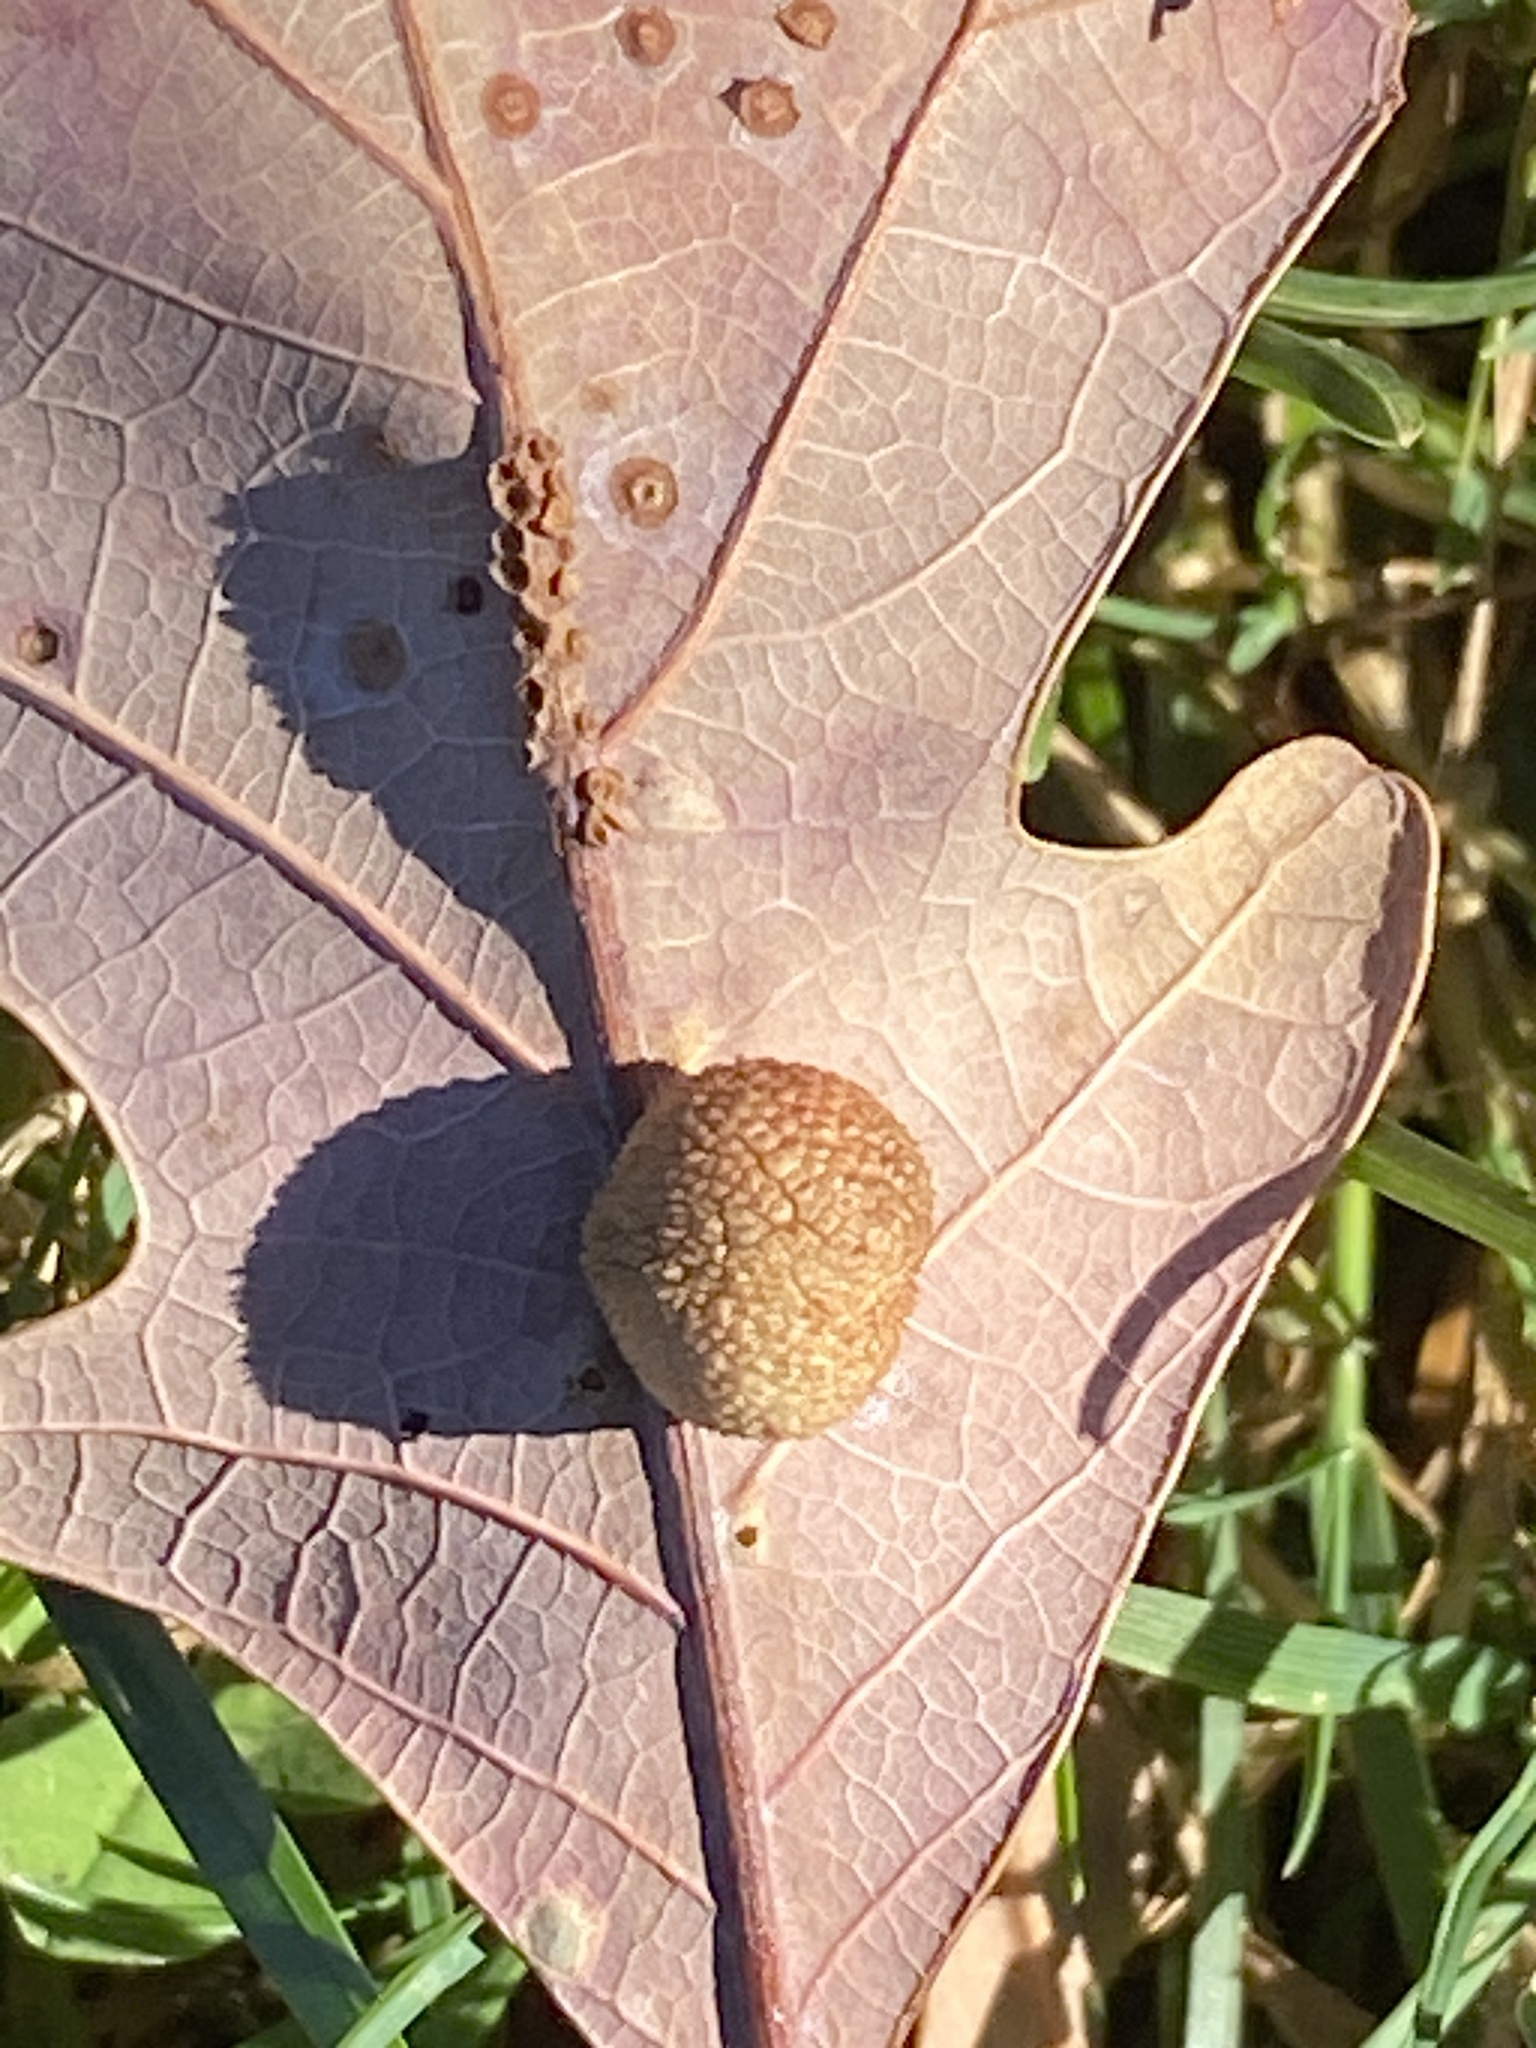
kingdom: Animalia
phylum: Arthropoda
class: Insecta
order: Hymenoptera
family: Cynipidae
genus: Acraspis
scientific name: Acraspis
